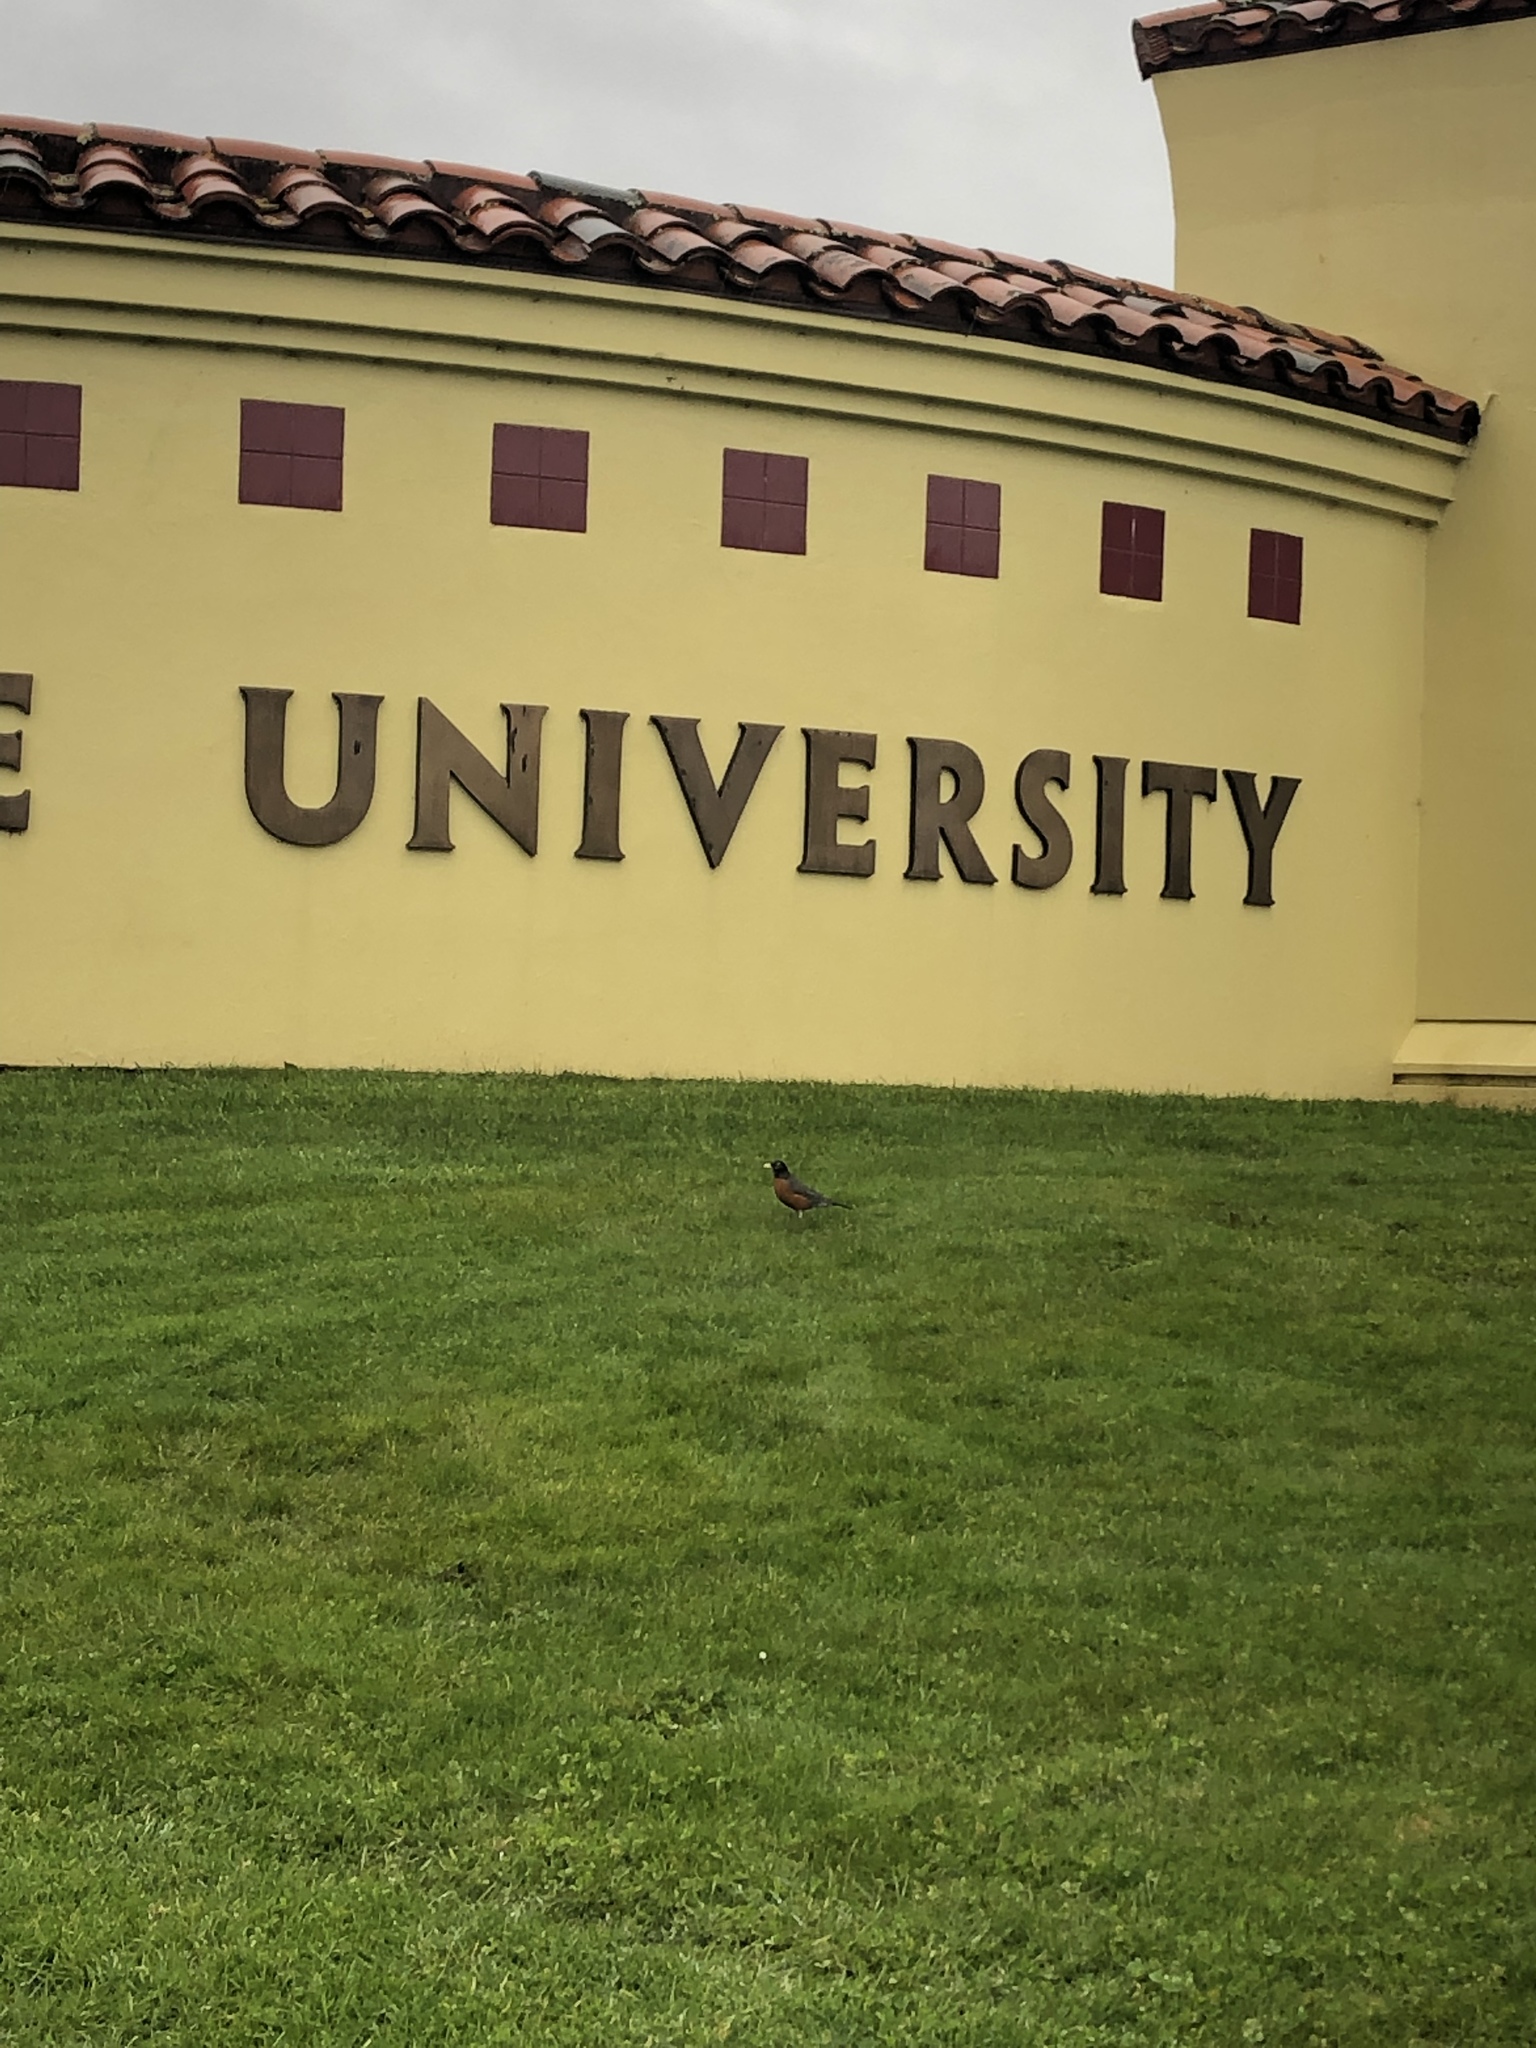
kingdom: Animalia
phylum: Chordata
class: Aves
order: Passeriformes
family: Turdidae
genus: Turdus
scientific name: Turdus migratorius
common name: American robin
